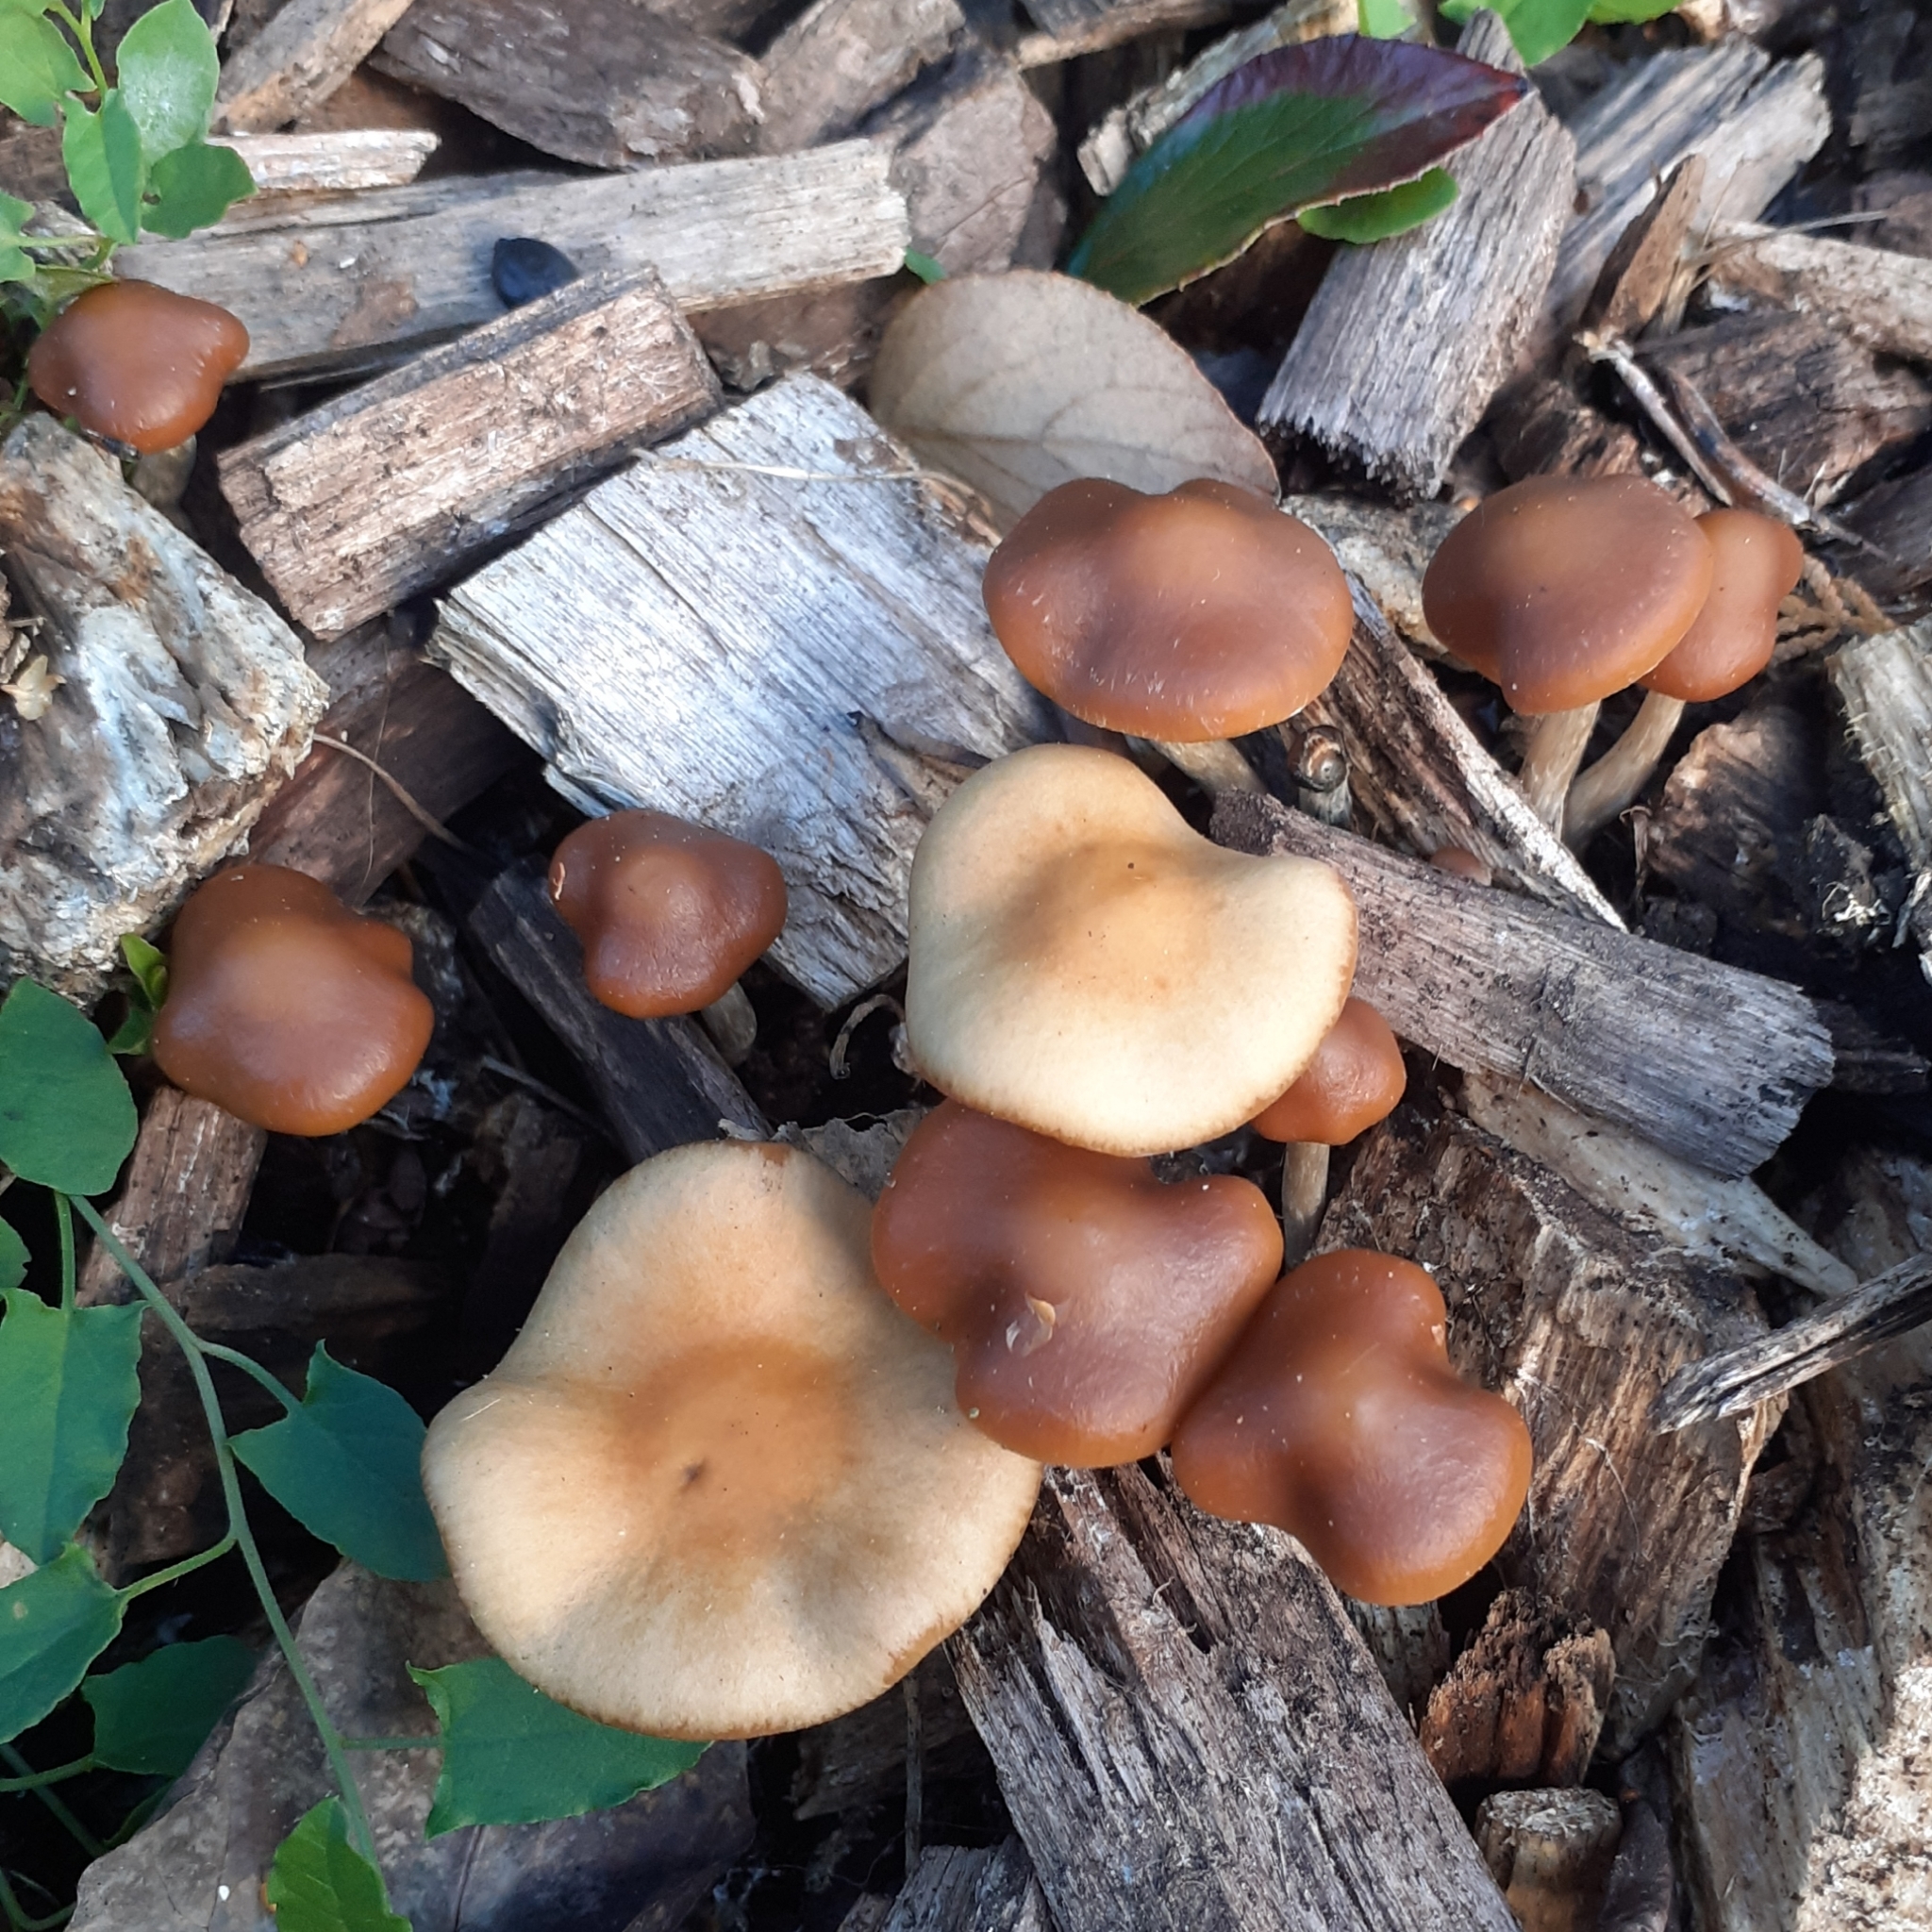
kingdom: Fungi
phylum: Basidiomycota
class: Agaricomycetes
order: Agaricales
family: Hymenogastraceae
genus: Psilocybe
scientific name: Psilocybe cyanescens
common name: Blueleg brownie
